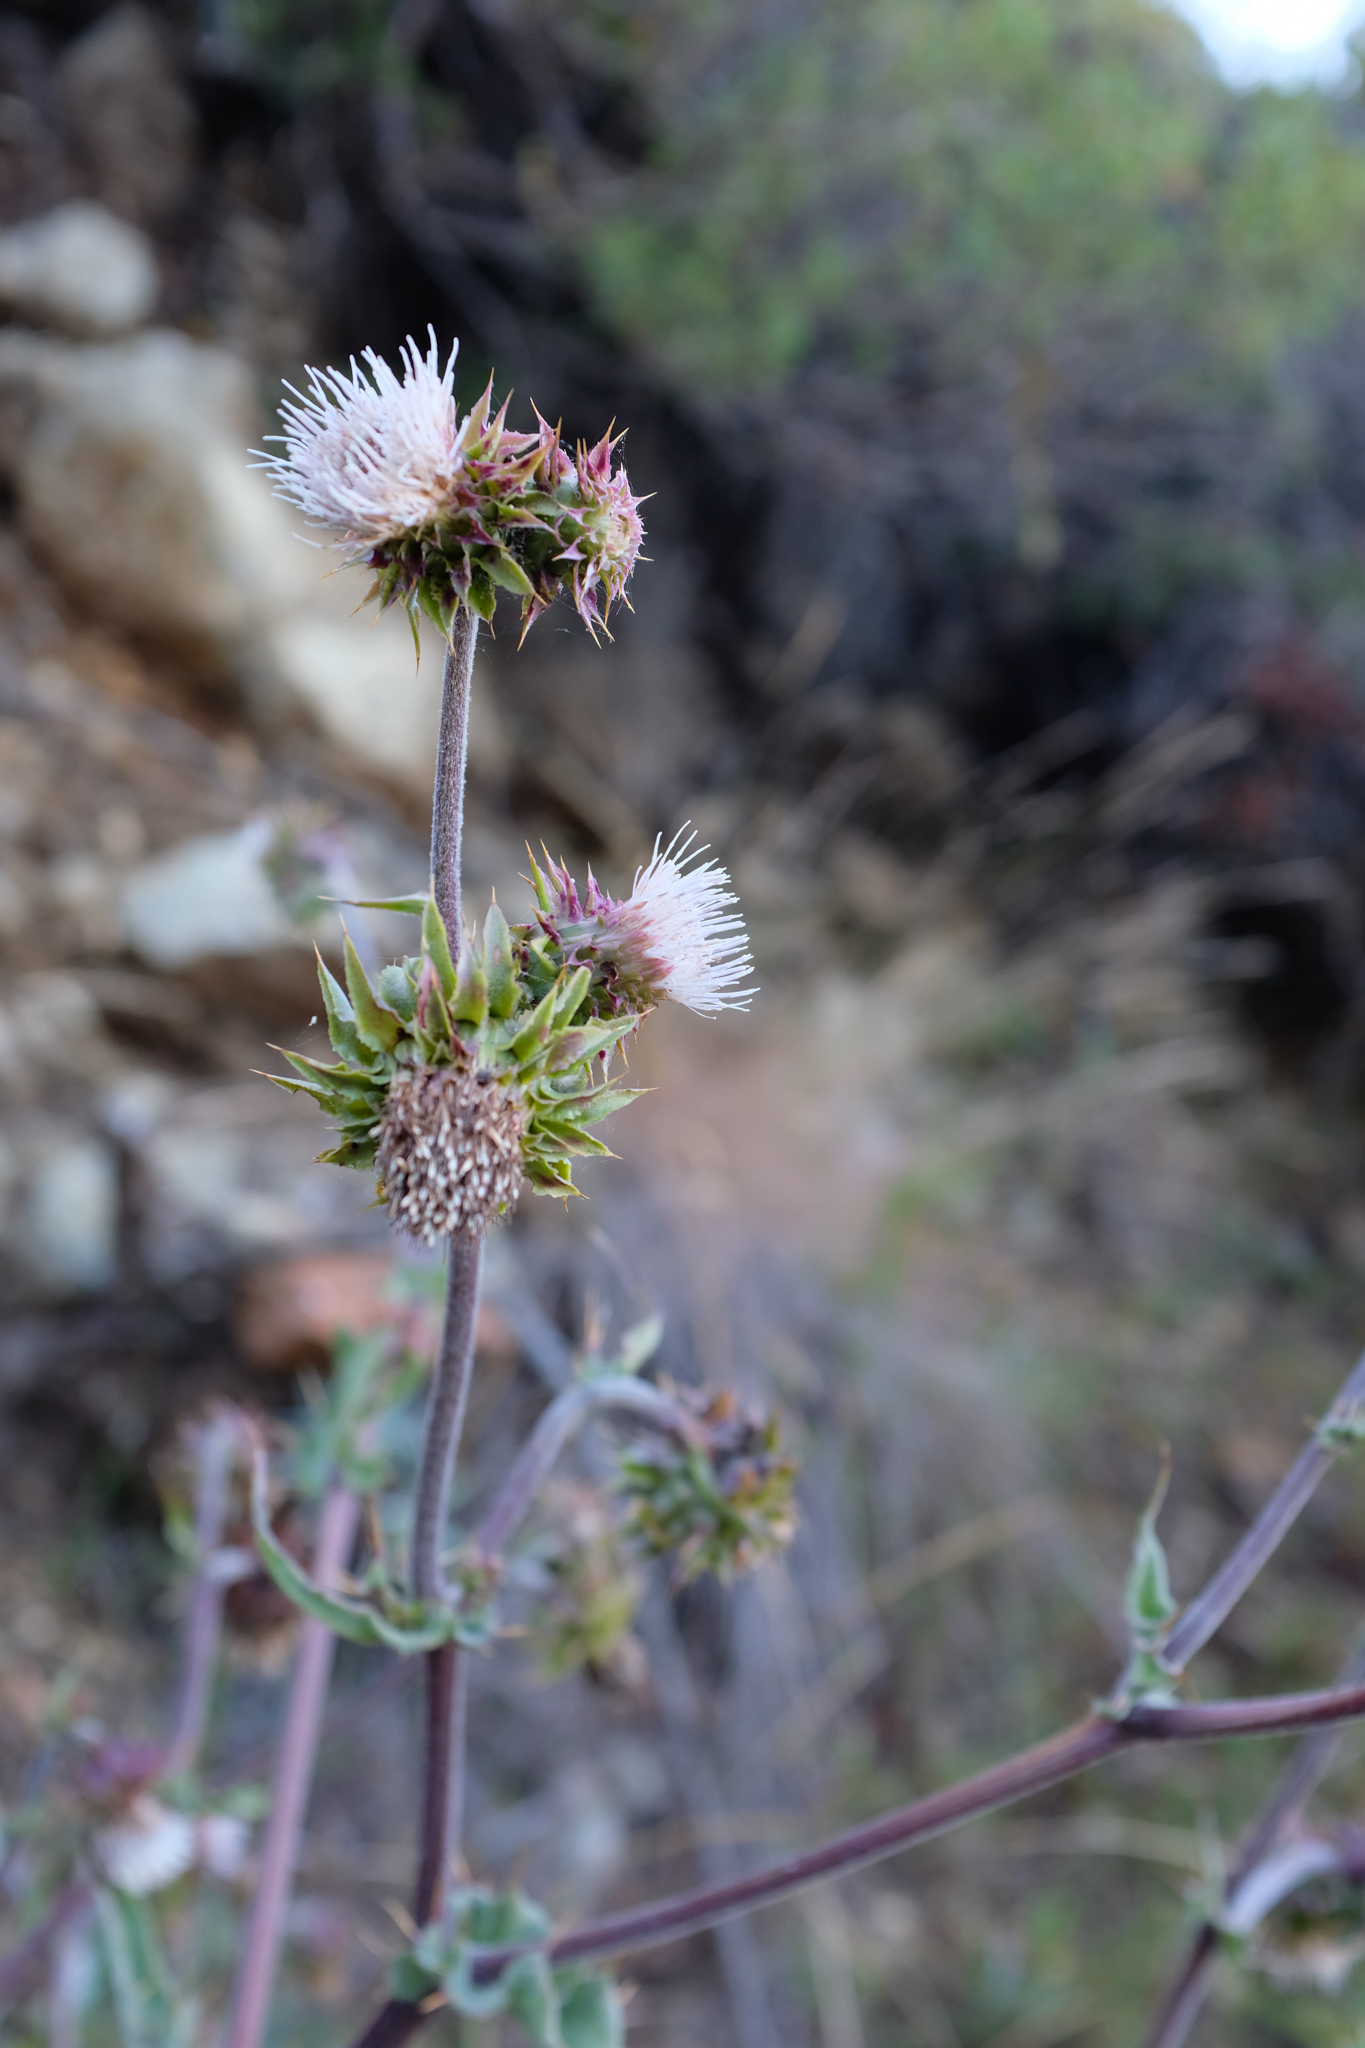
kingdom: Plantae
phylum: Tracheophyta
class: Magnoliopsida
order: Asterales
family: Asteraceae
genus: Cirsium
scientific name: Cirsium fontinale
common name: Fountain thistle
